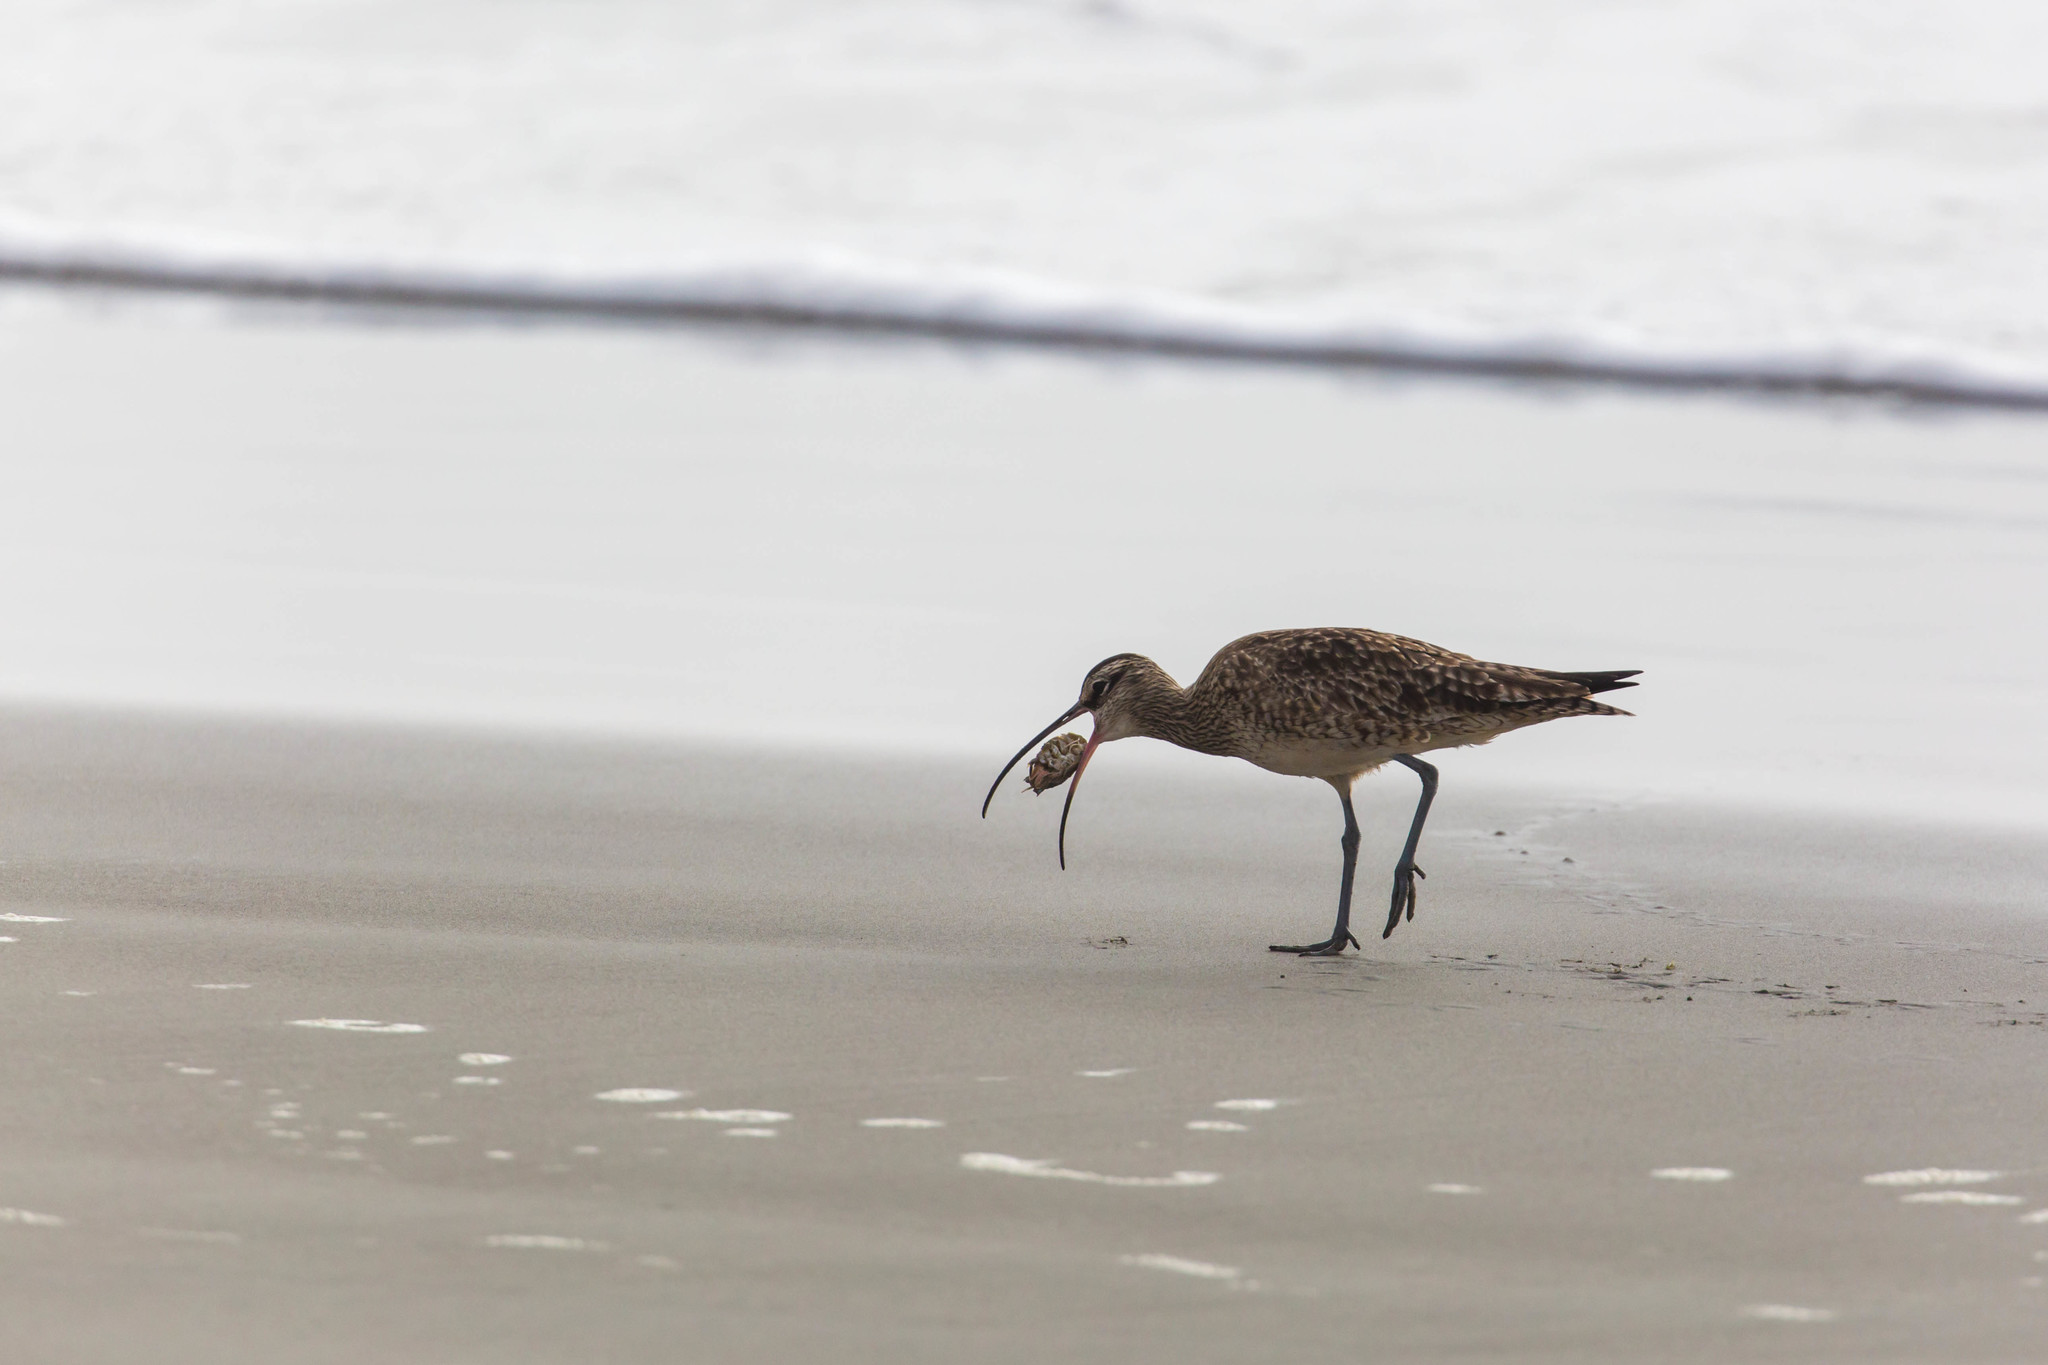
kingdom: Animalia
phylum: Chordata
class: Aves
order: Charadriiformes
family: Scolopacidae
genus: Numenius
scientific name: Numenius phaeopus
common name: Whimbrel
